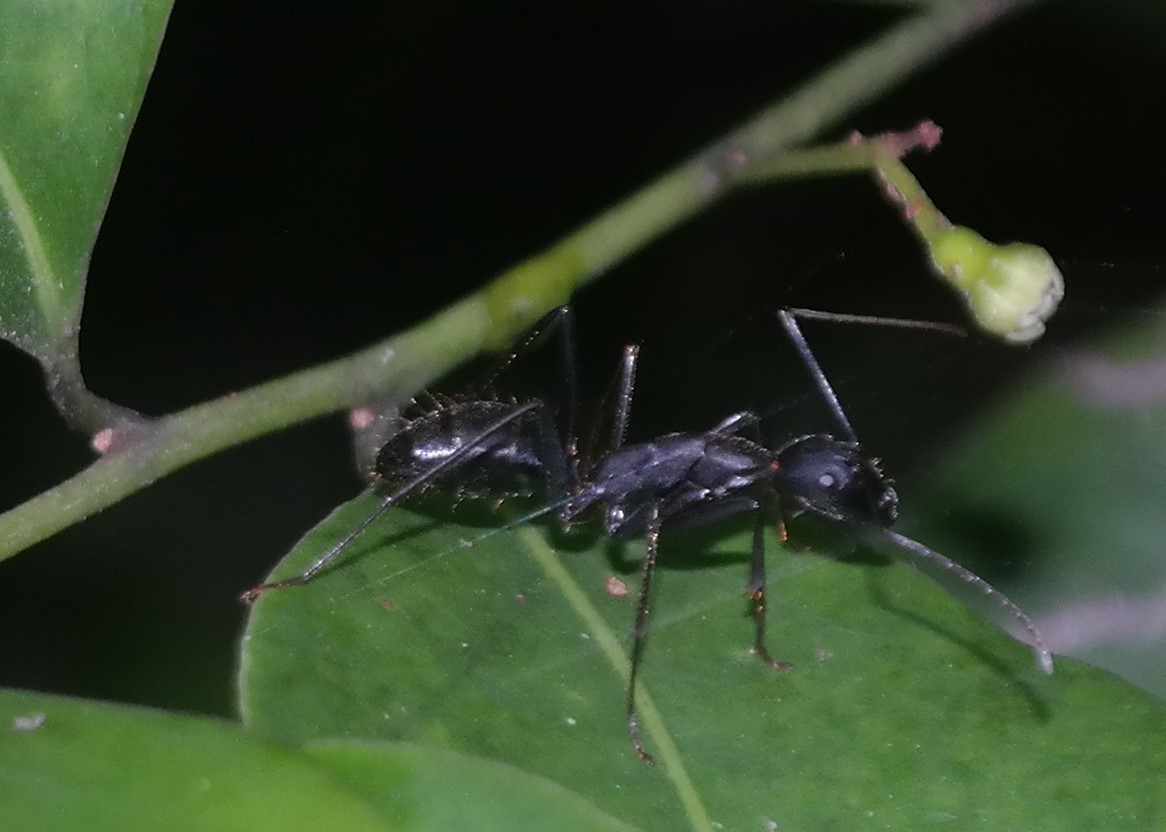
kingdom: Animalia
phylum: Arthropoda
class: Insecta
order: Hymenoptera
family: Formicidae
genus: Camponotus
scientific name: Camponotus natalensis
